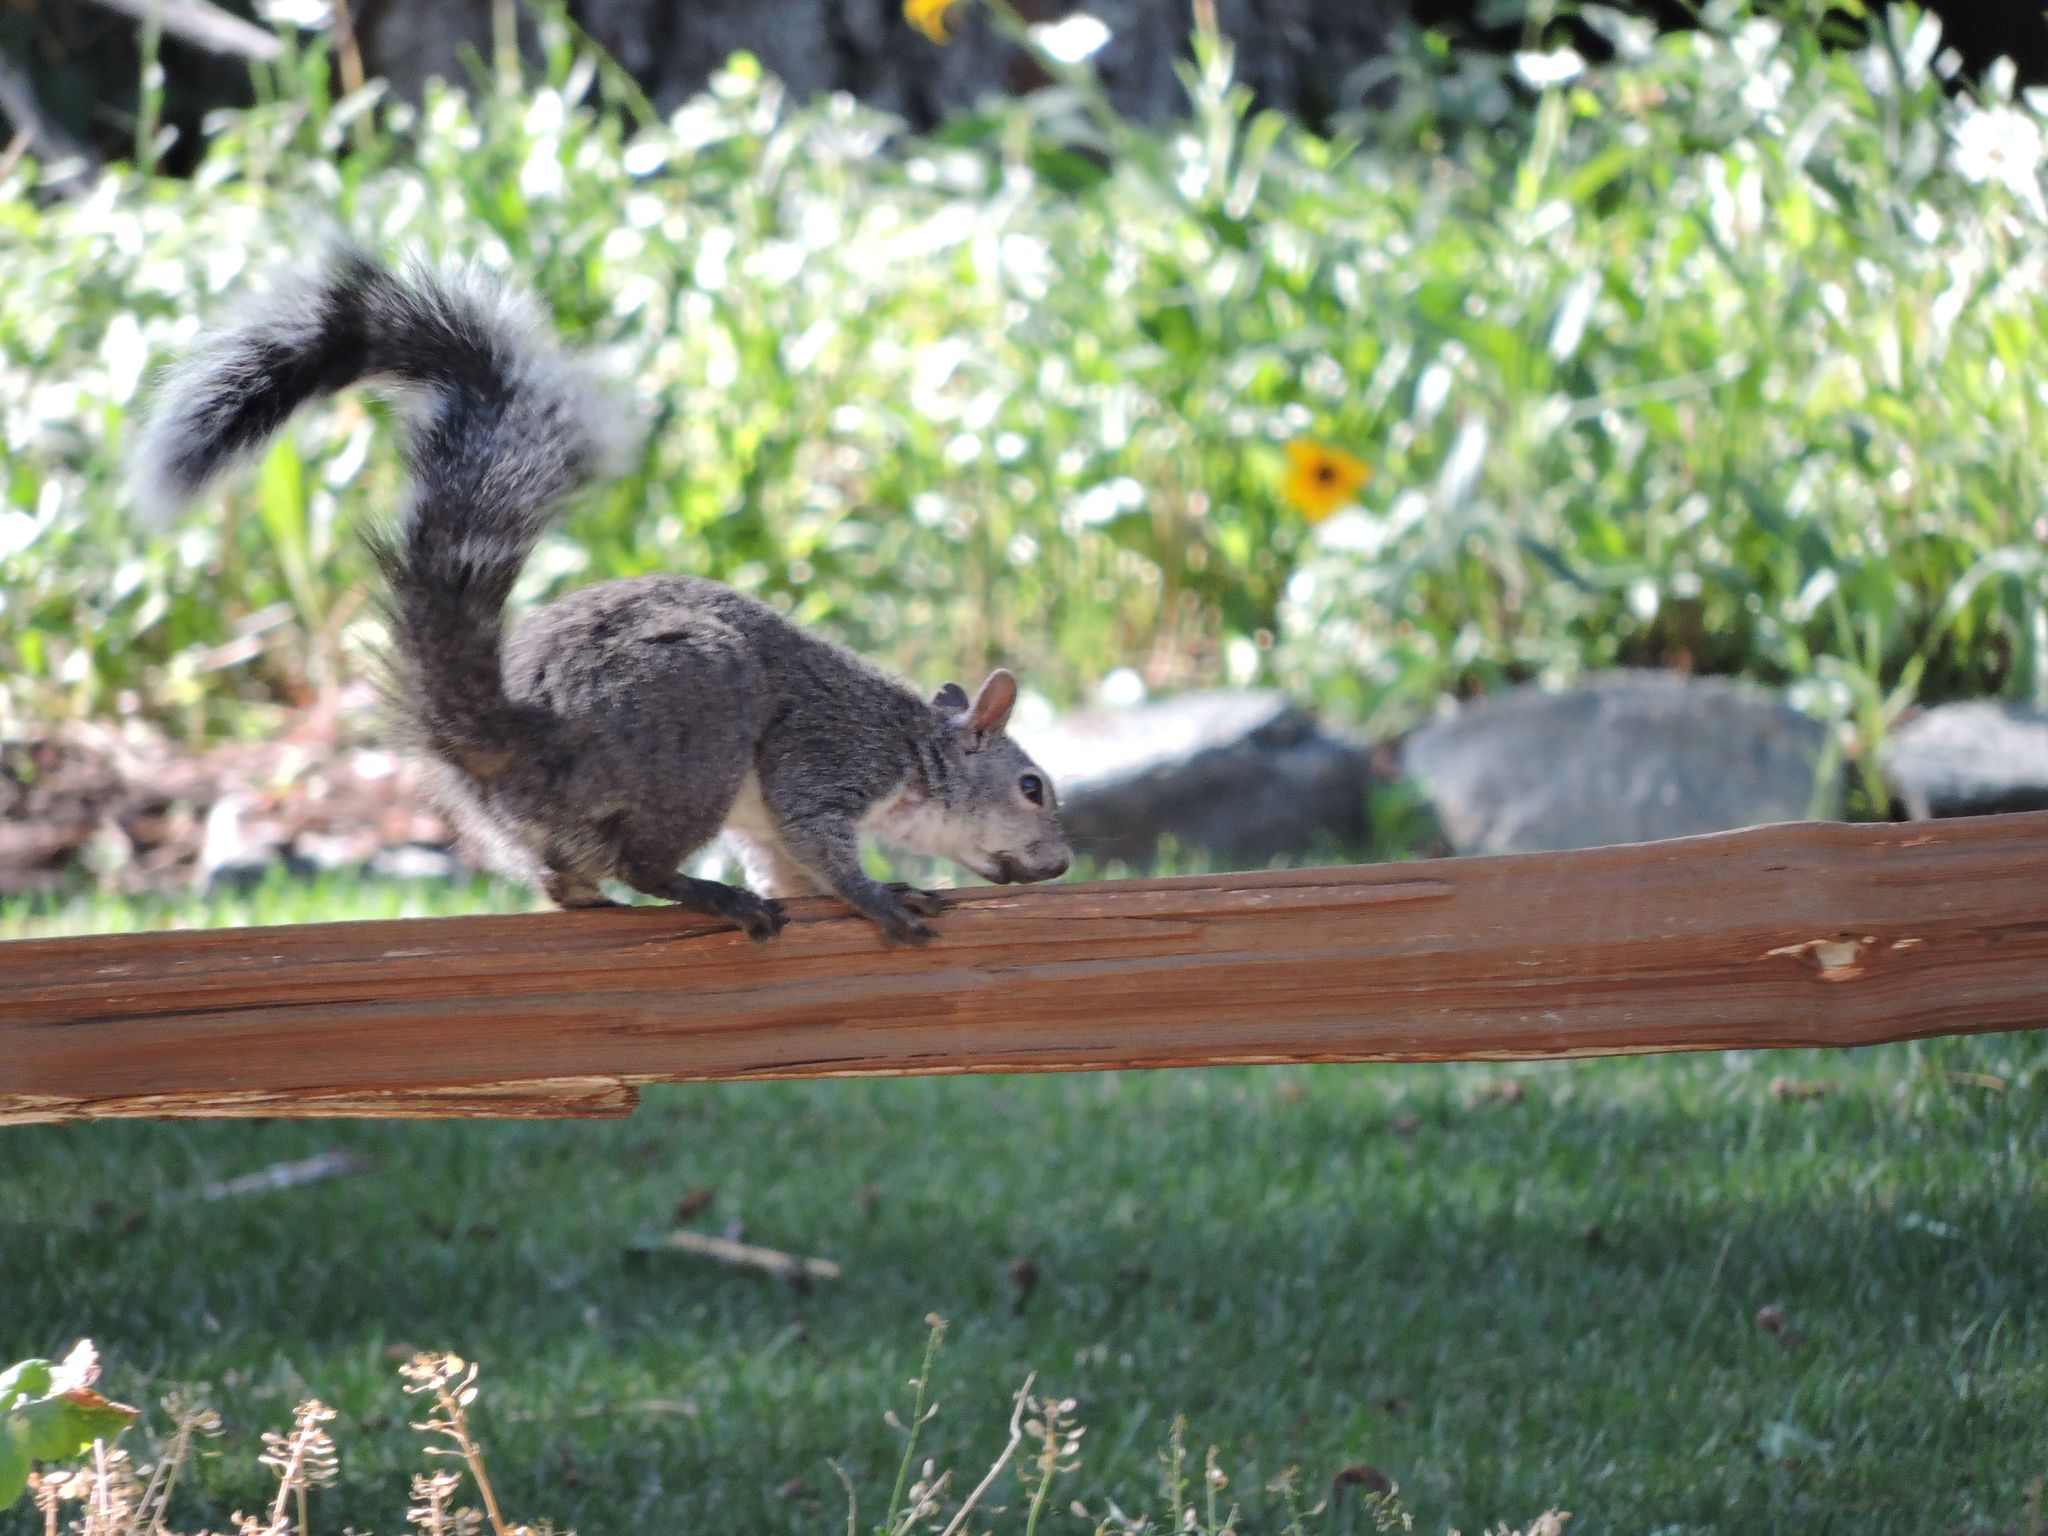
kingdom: Animalia
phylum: Chordata
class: Mammalia
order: Rodentia
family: Sciuridae
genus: Sciurus
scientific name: Sciurus griseus
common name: Western gray squirrel
